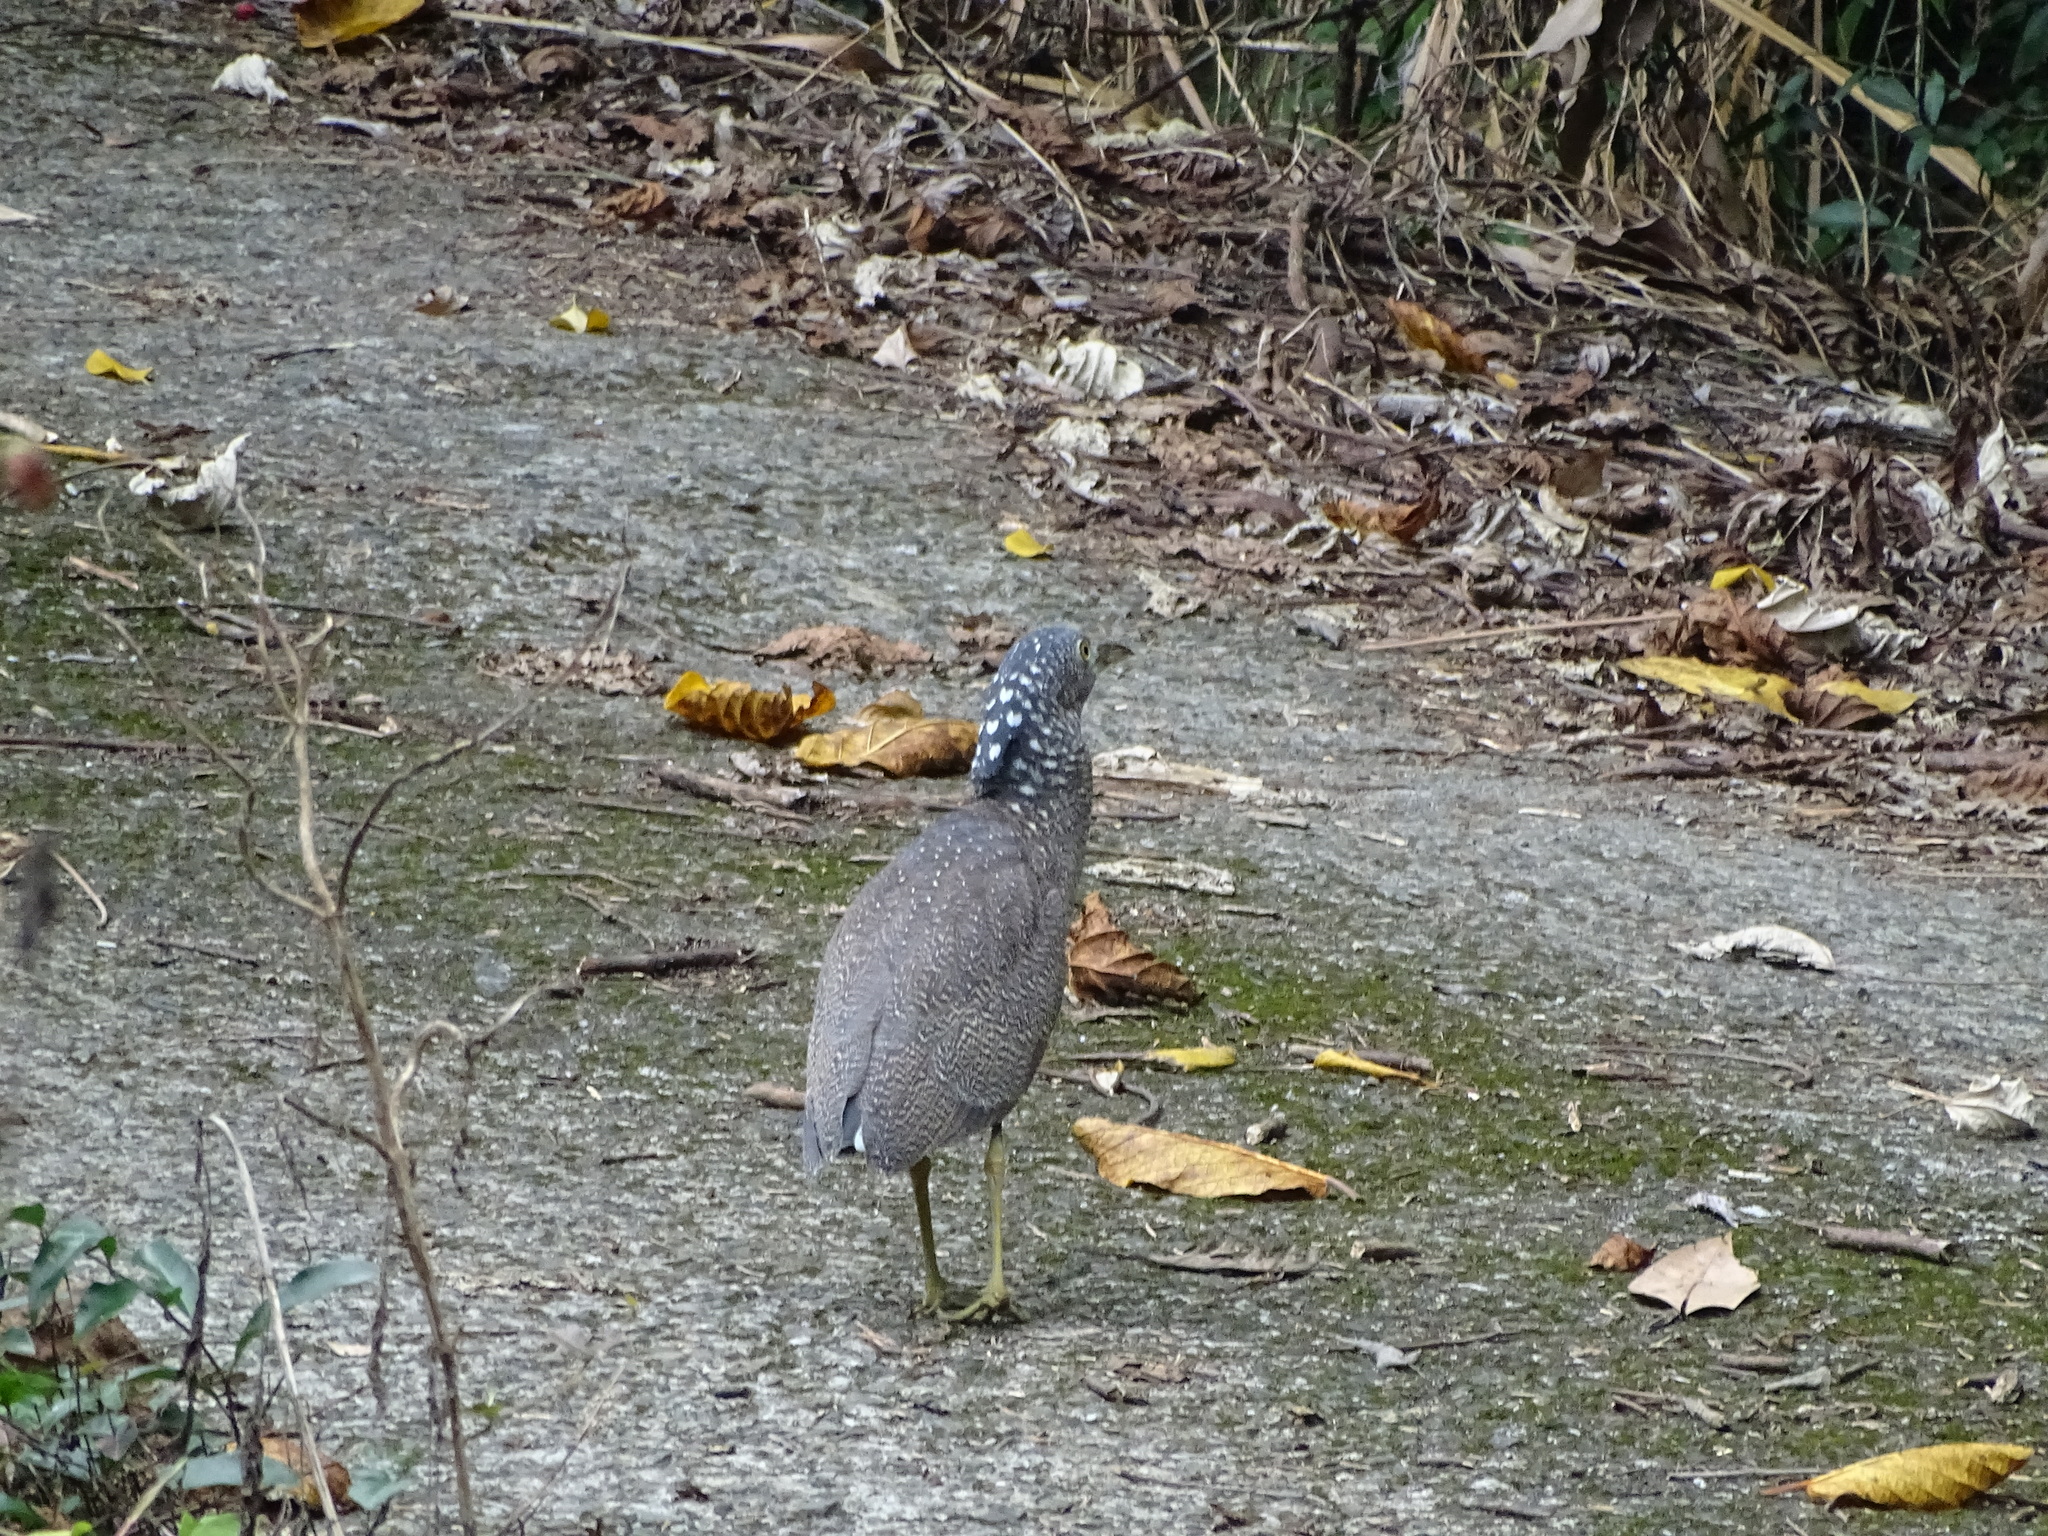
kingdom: Animalia
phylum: Chordata
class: Aves
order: Pelecaniformes
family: Ardeidae
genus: Gorsachius
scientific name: Gorsachius melanolophus
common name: Malayan night heron
